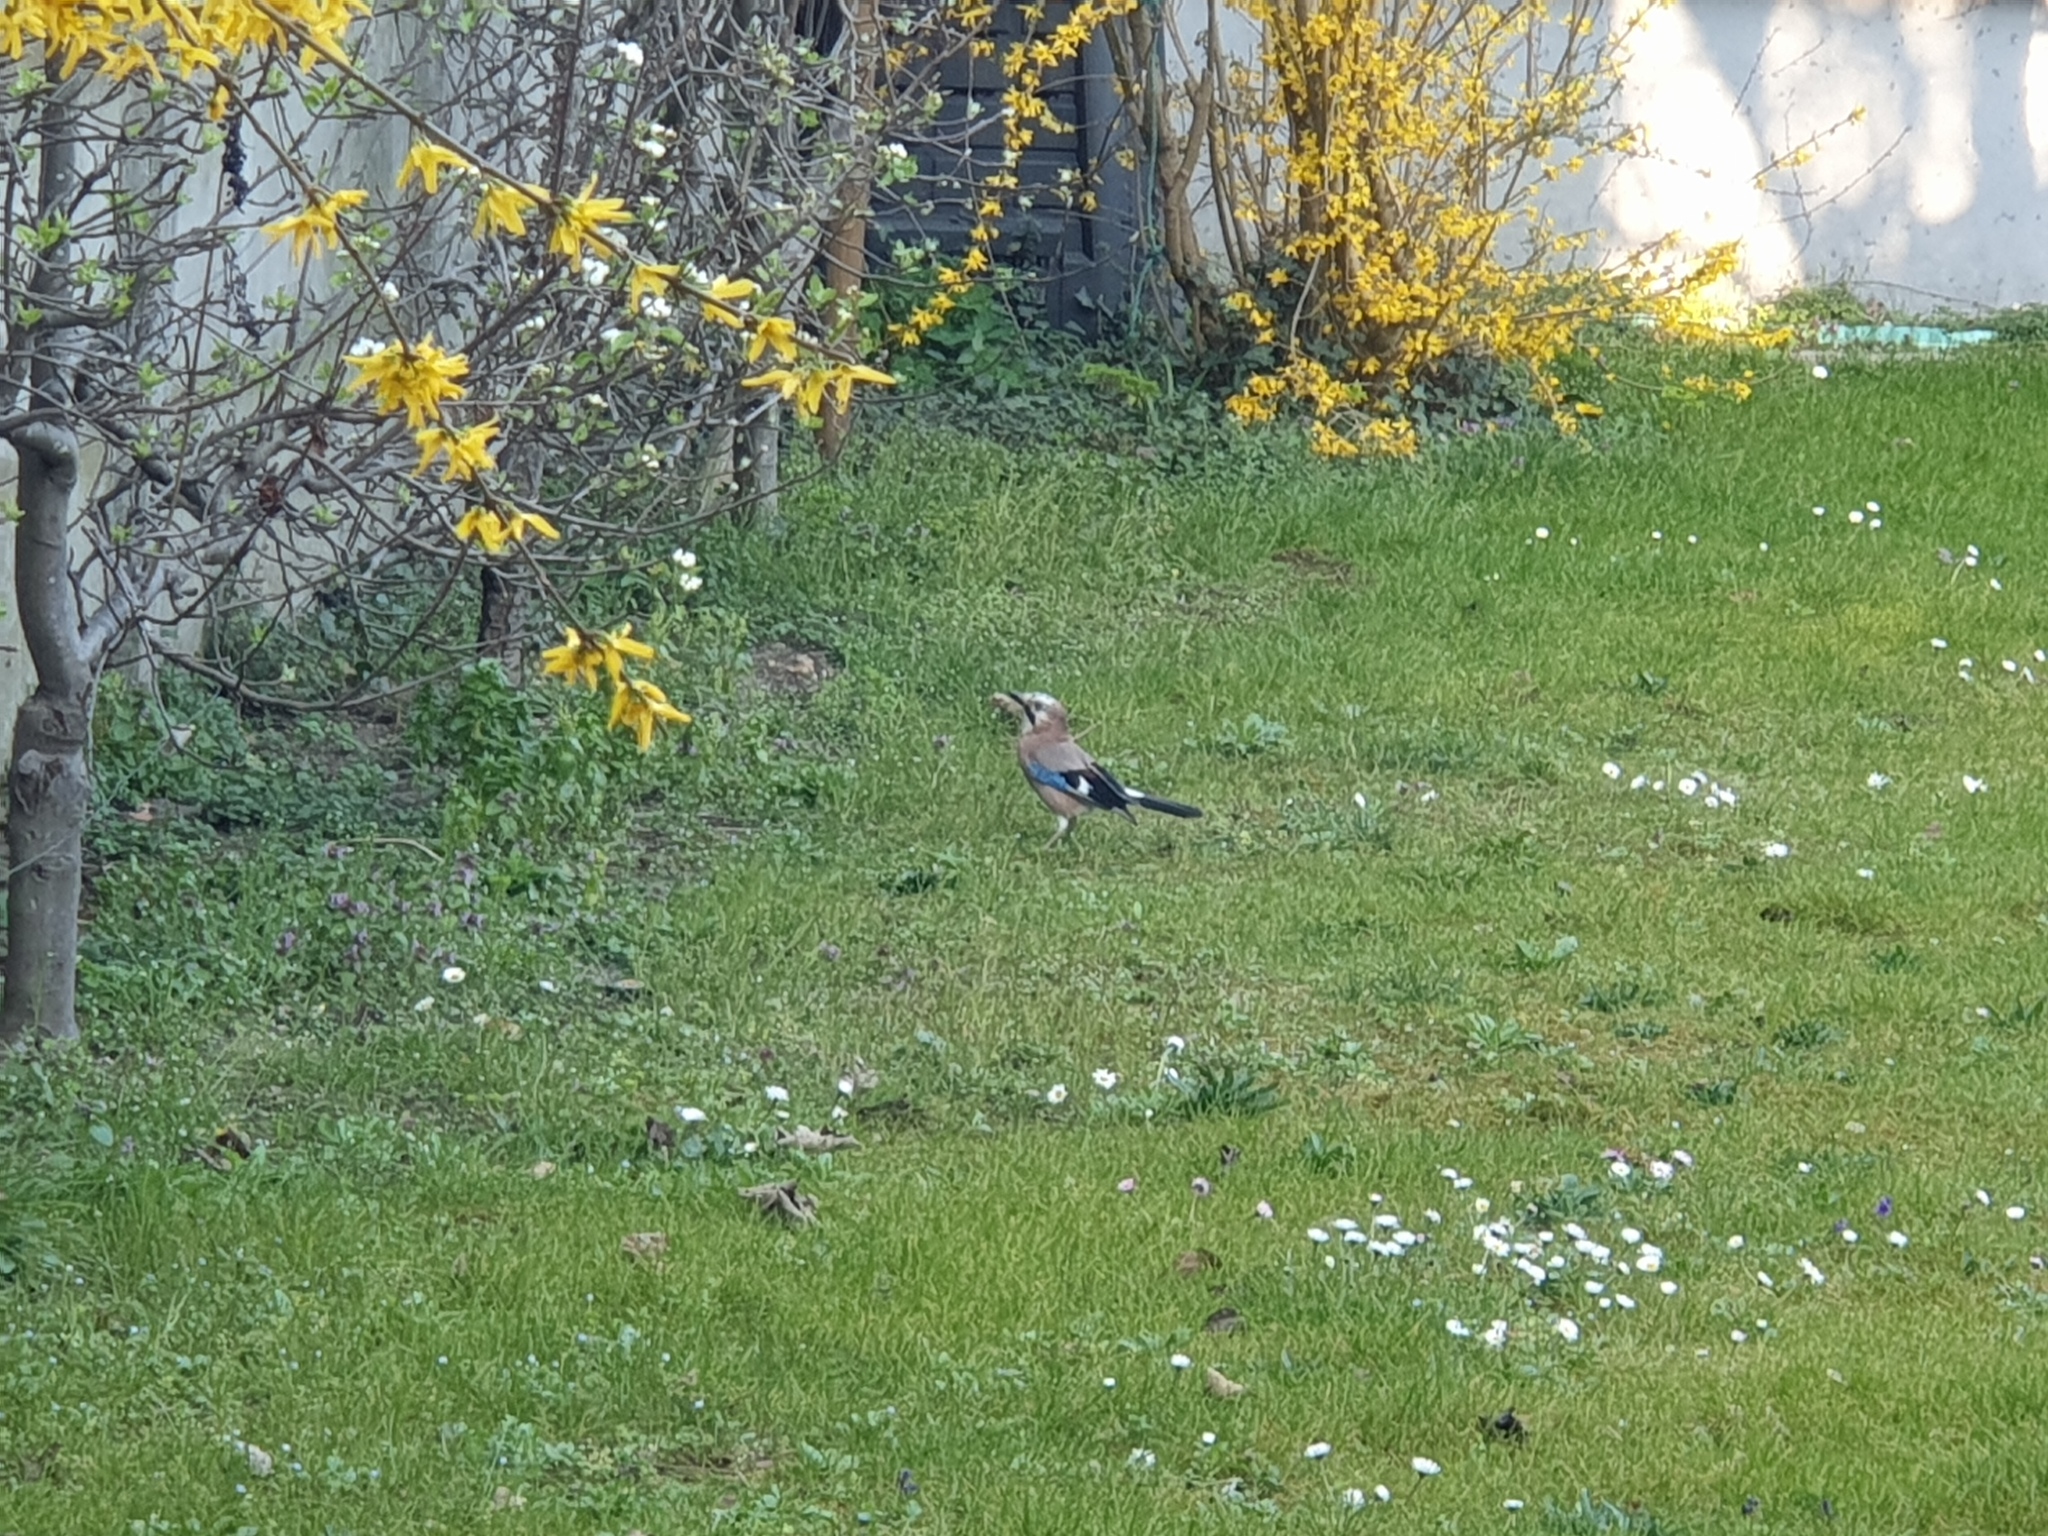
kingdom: Animalia
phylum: Chordata
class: Aves
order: Passeriformes
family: Corvidae
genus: Garrulus
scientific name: Garrulus glandarius
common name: Eurasian jay
